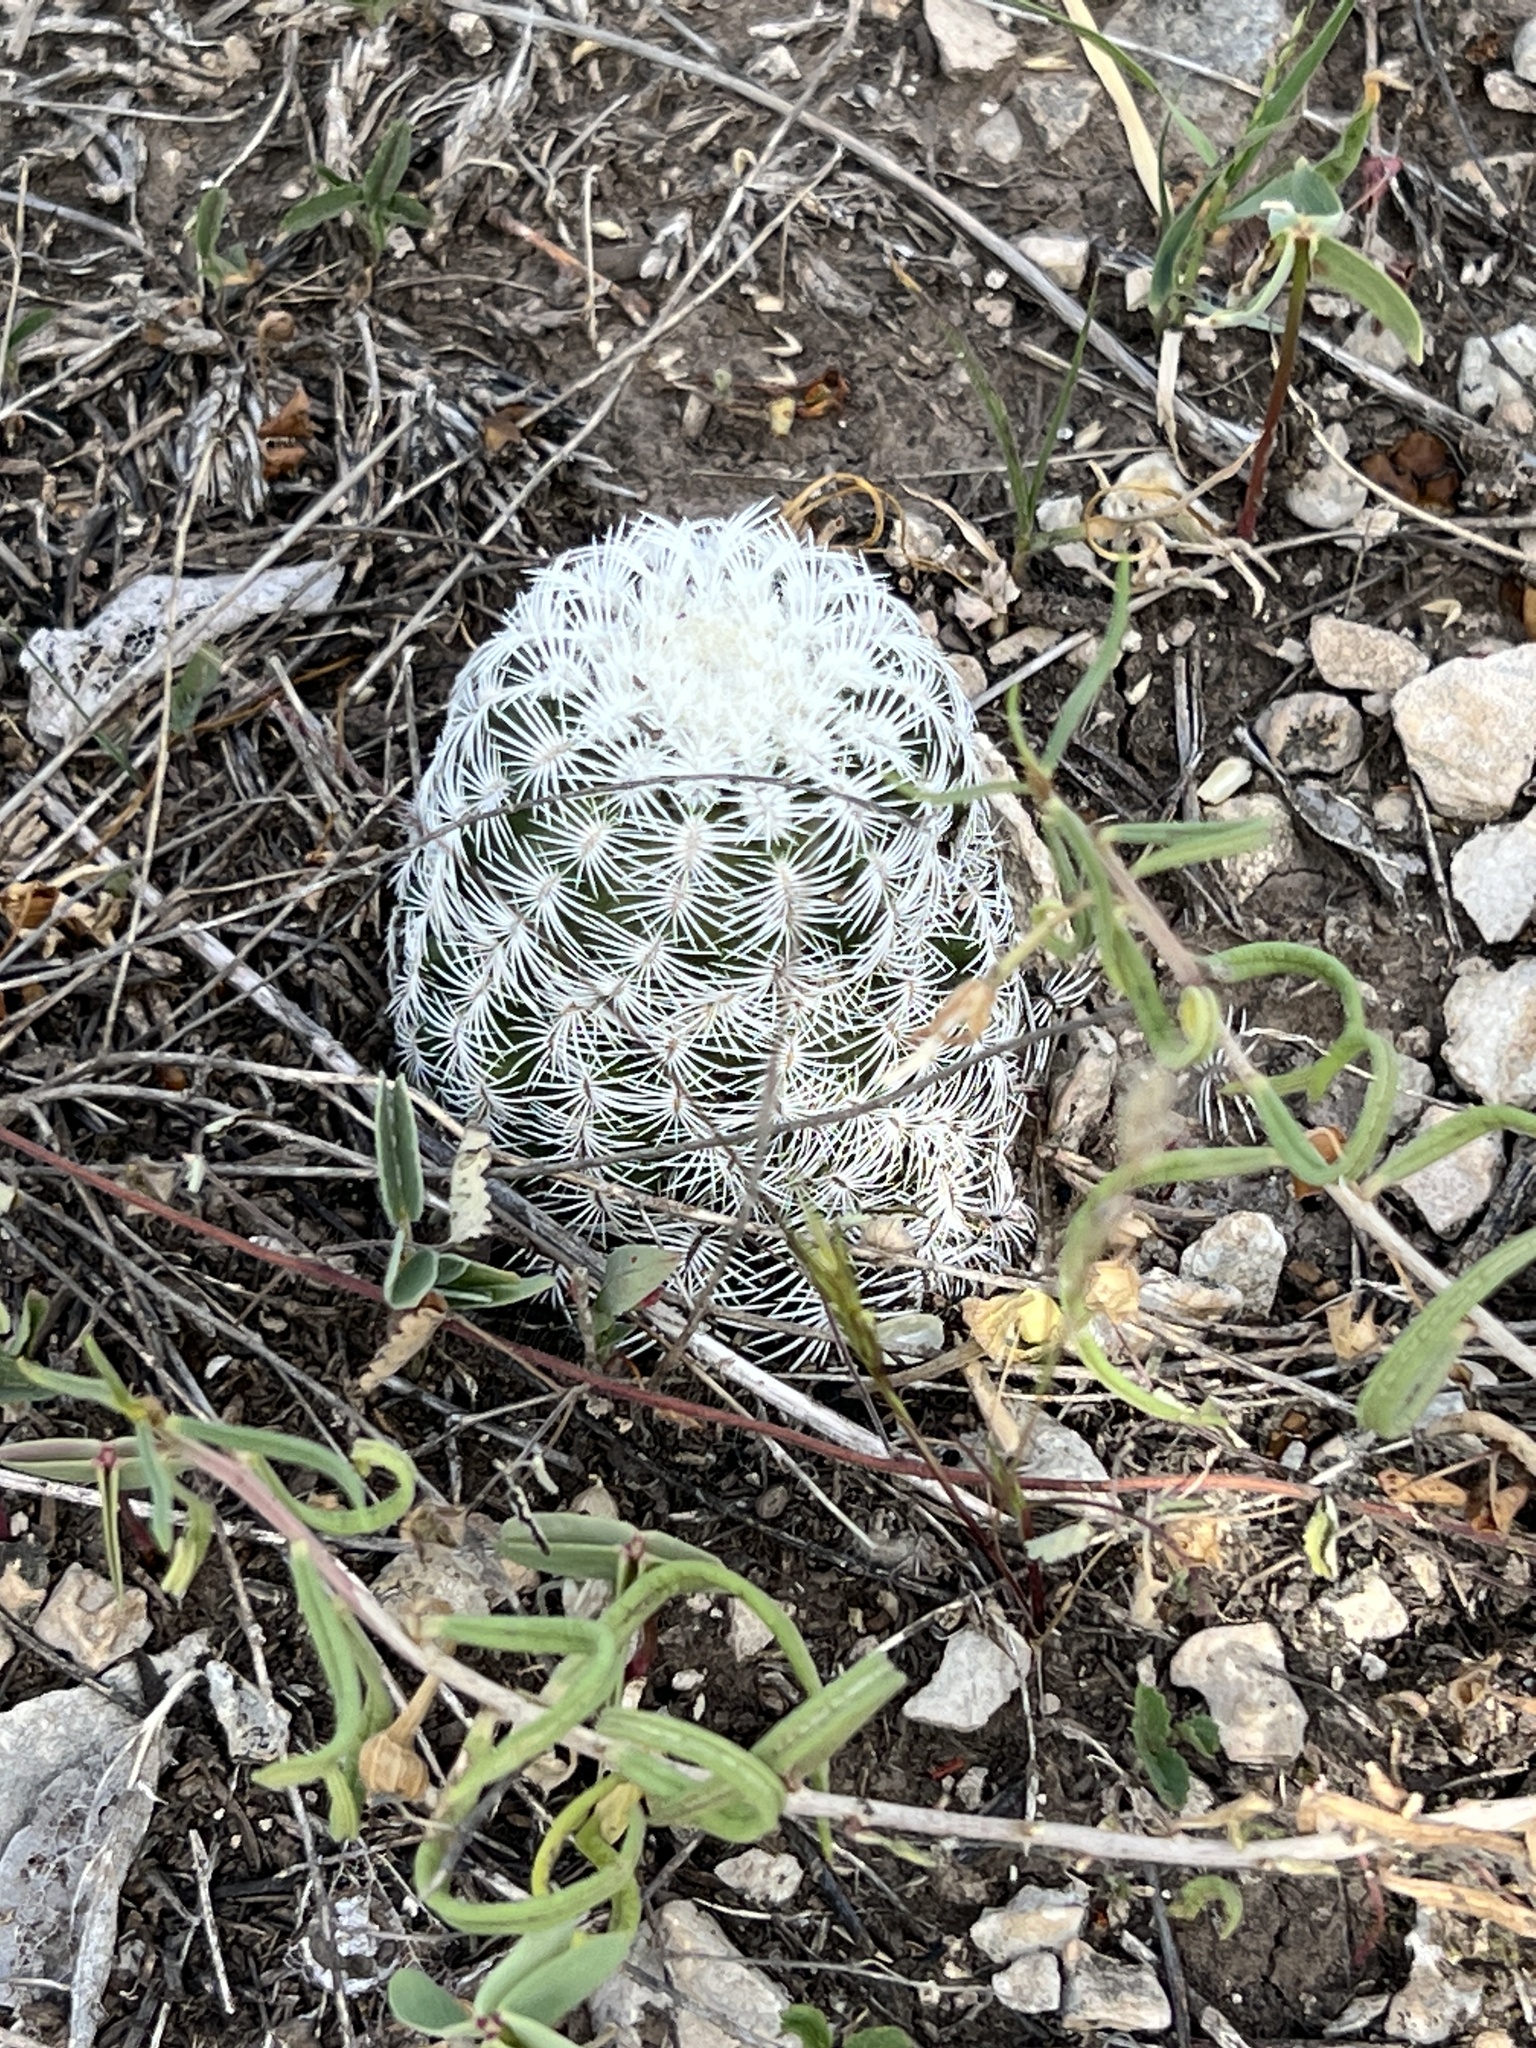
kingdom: Plantae
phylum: Tracheophyta
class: Magnoliopsida
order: Caryophyllales
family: Cactaceae
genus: Echinocereus
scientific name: Echinocereus reichenbachii
